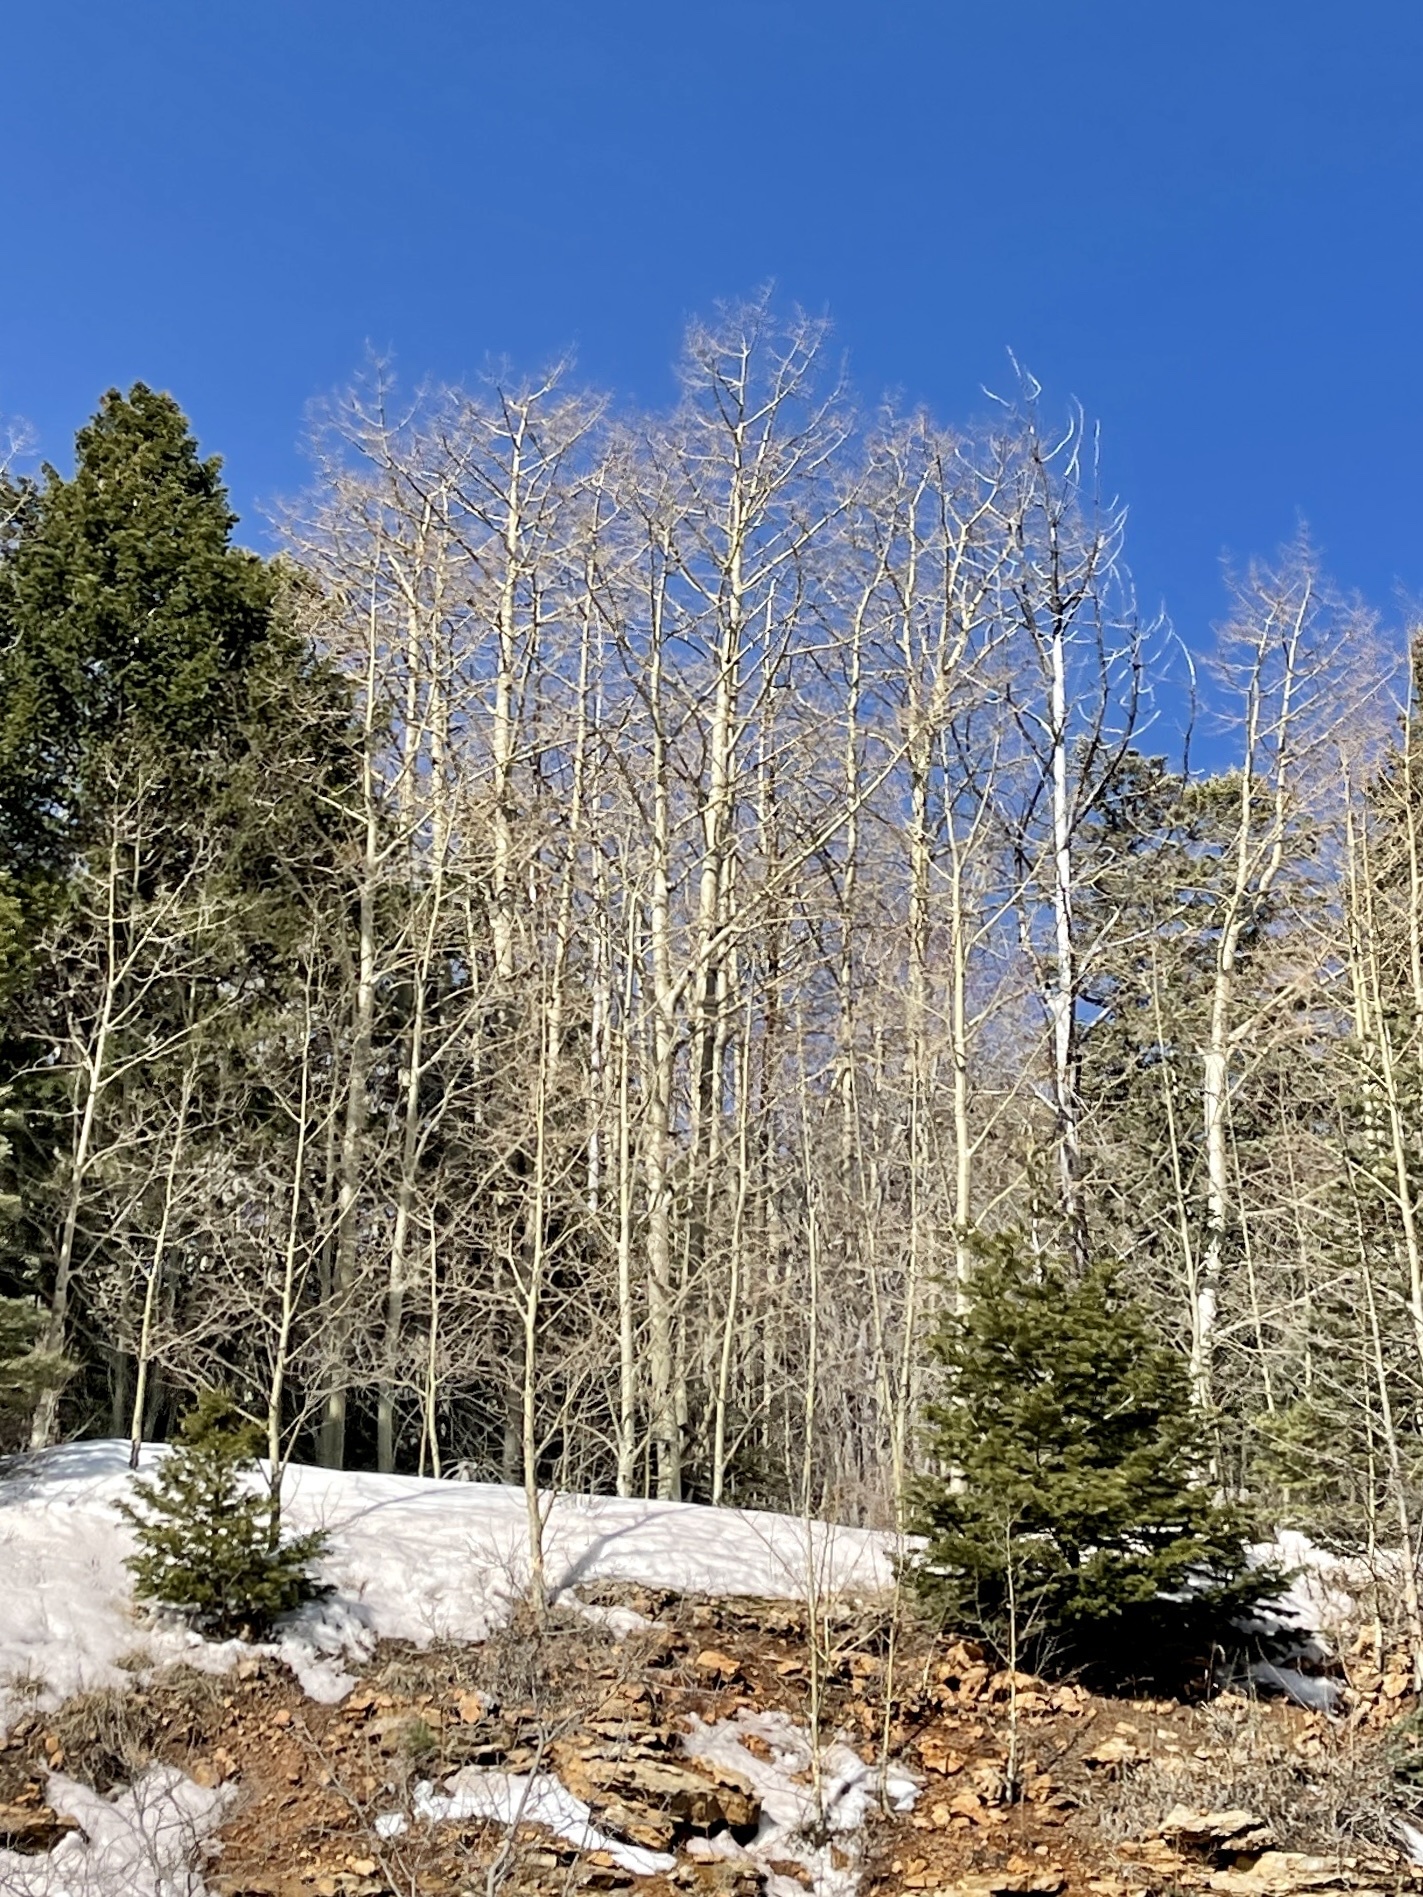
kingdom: Plantae
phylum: Tracheophyta
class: Magnoliopsida
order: Malpighiales
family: Salicaceae
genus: Populus
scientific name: Populus tremuloides
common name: Quaking aspen
